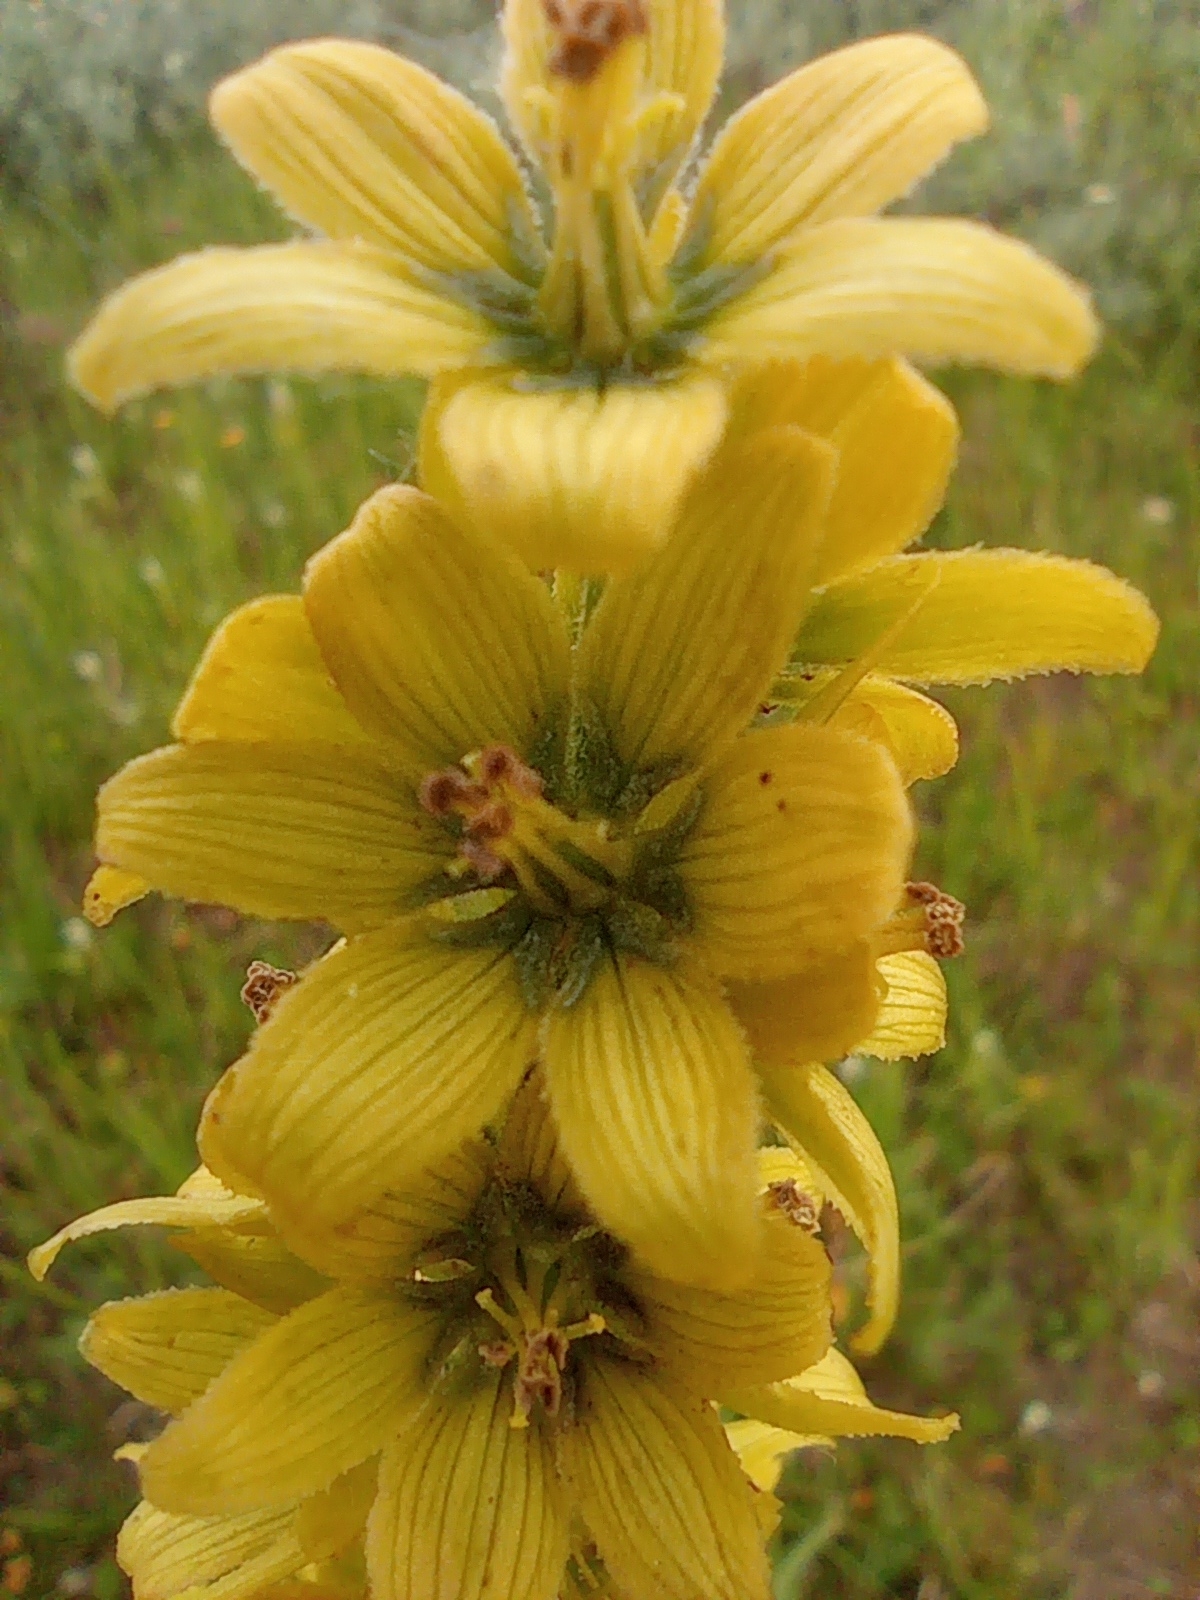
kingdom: Plantae
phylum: Tracheophyta
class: Liliopsida
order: Liliales
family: Melanthiaceae
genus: Veratrum
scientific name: Veratrum lobelianum
